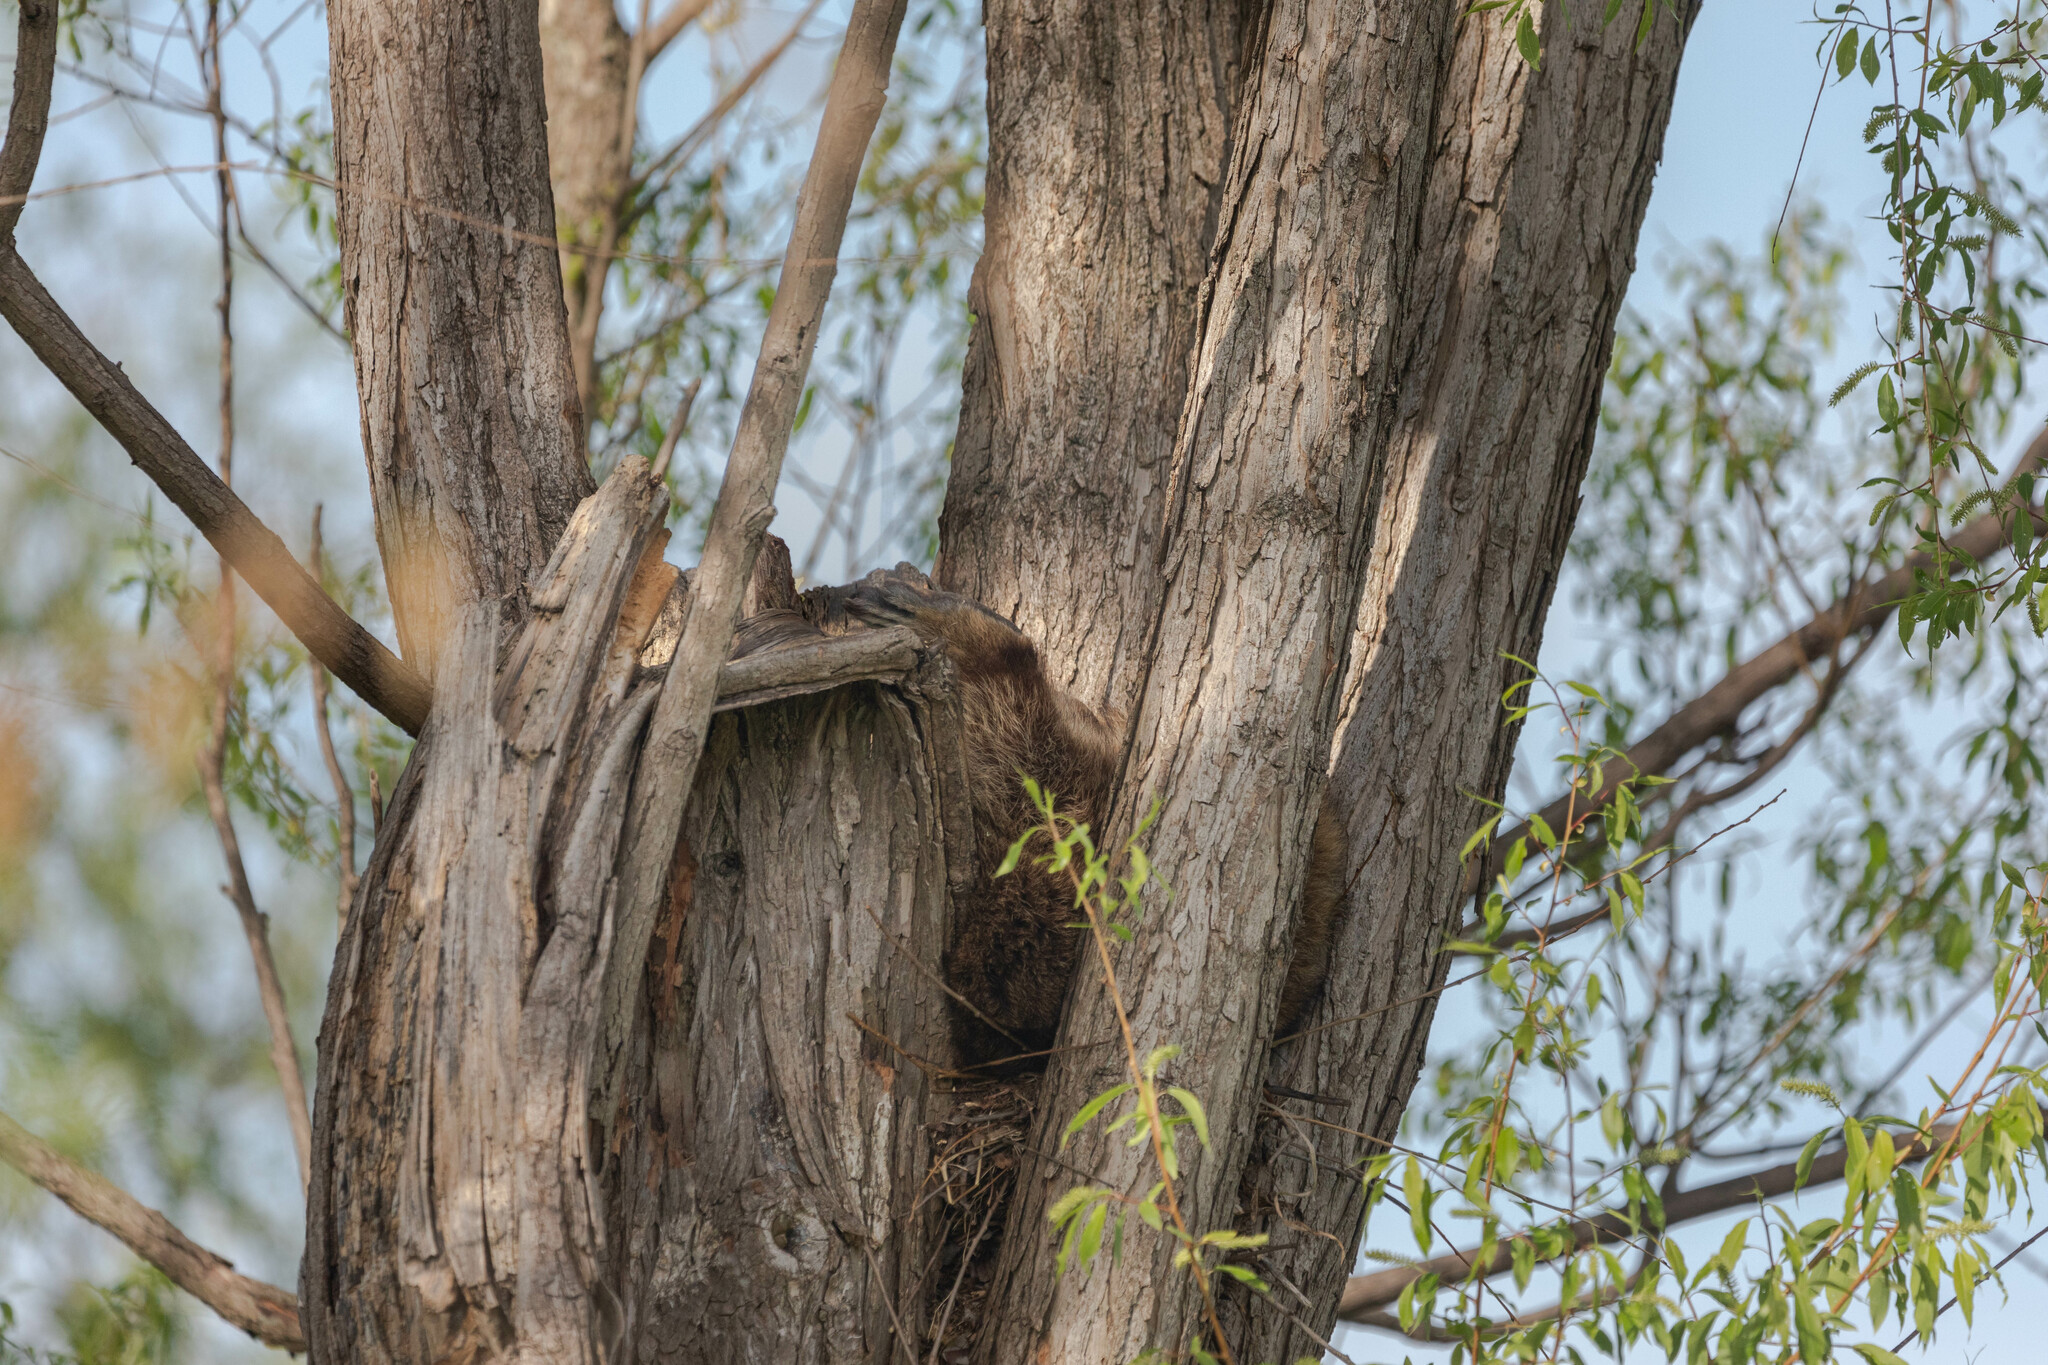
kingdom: Animalia
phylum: Chordata
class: Mammalia
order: Carnivora
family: Procyonidae
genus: Procyon
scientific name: Procyon lotor
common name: Raccoon
